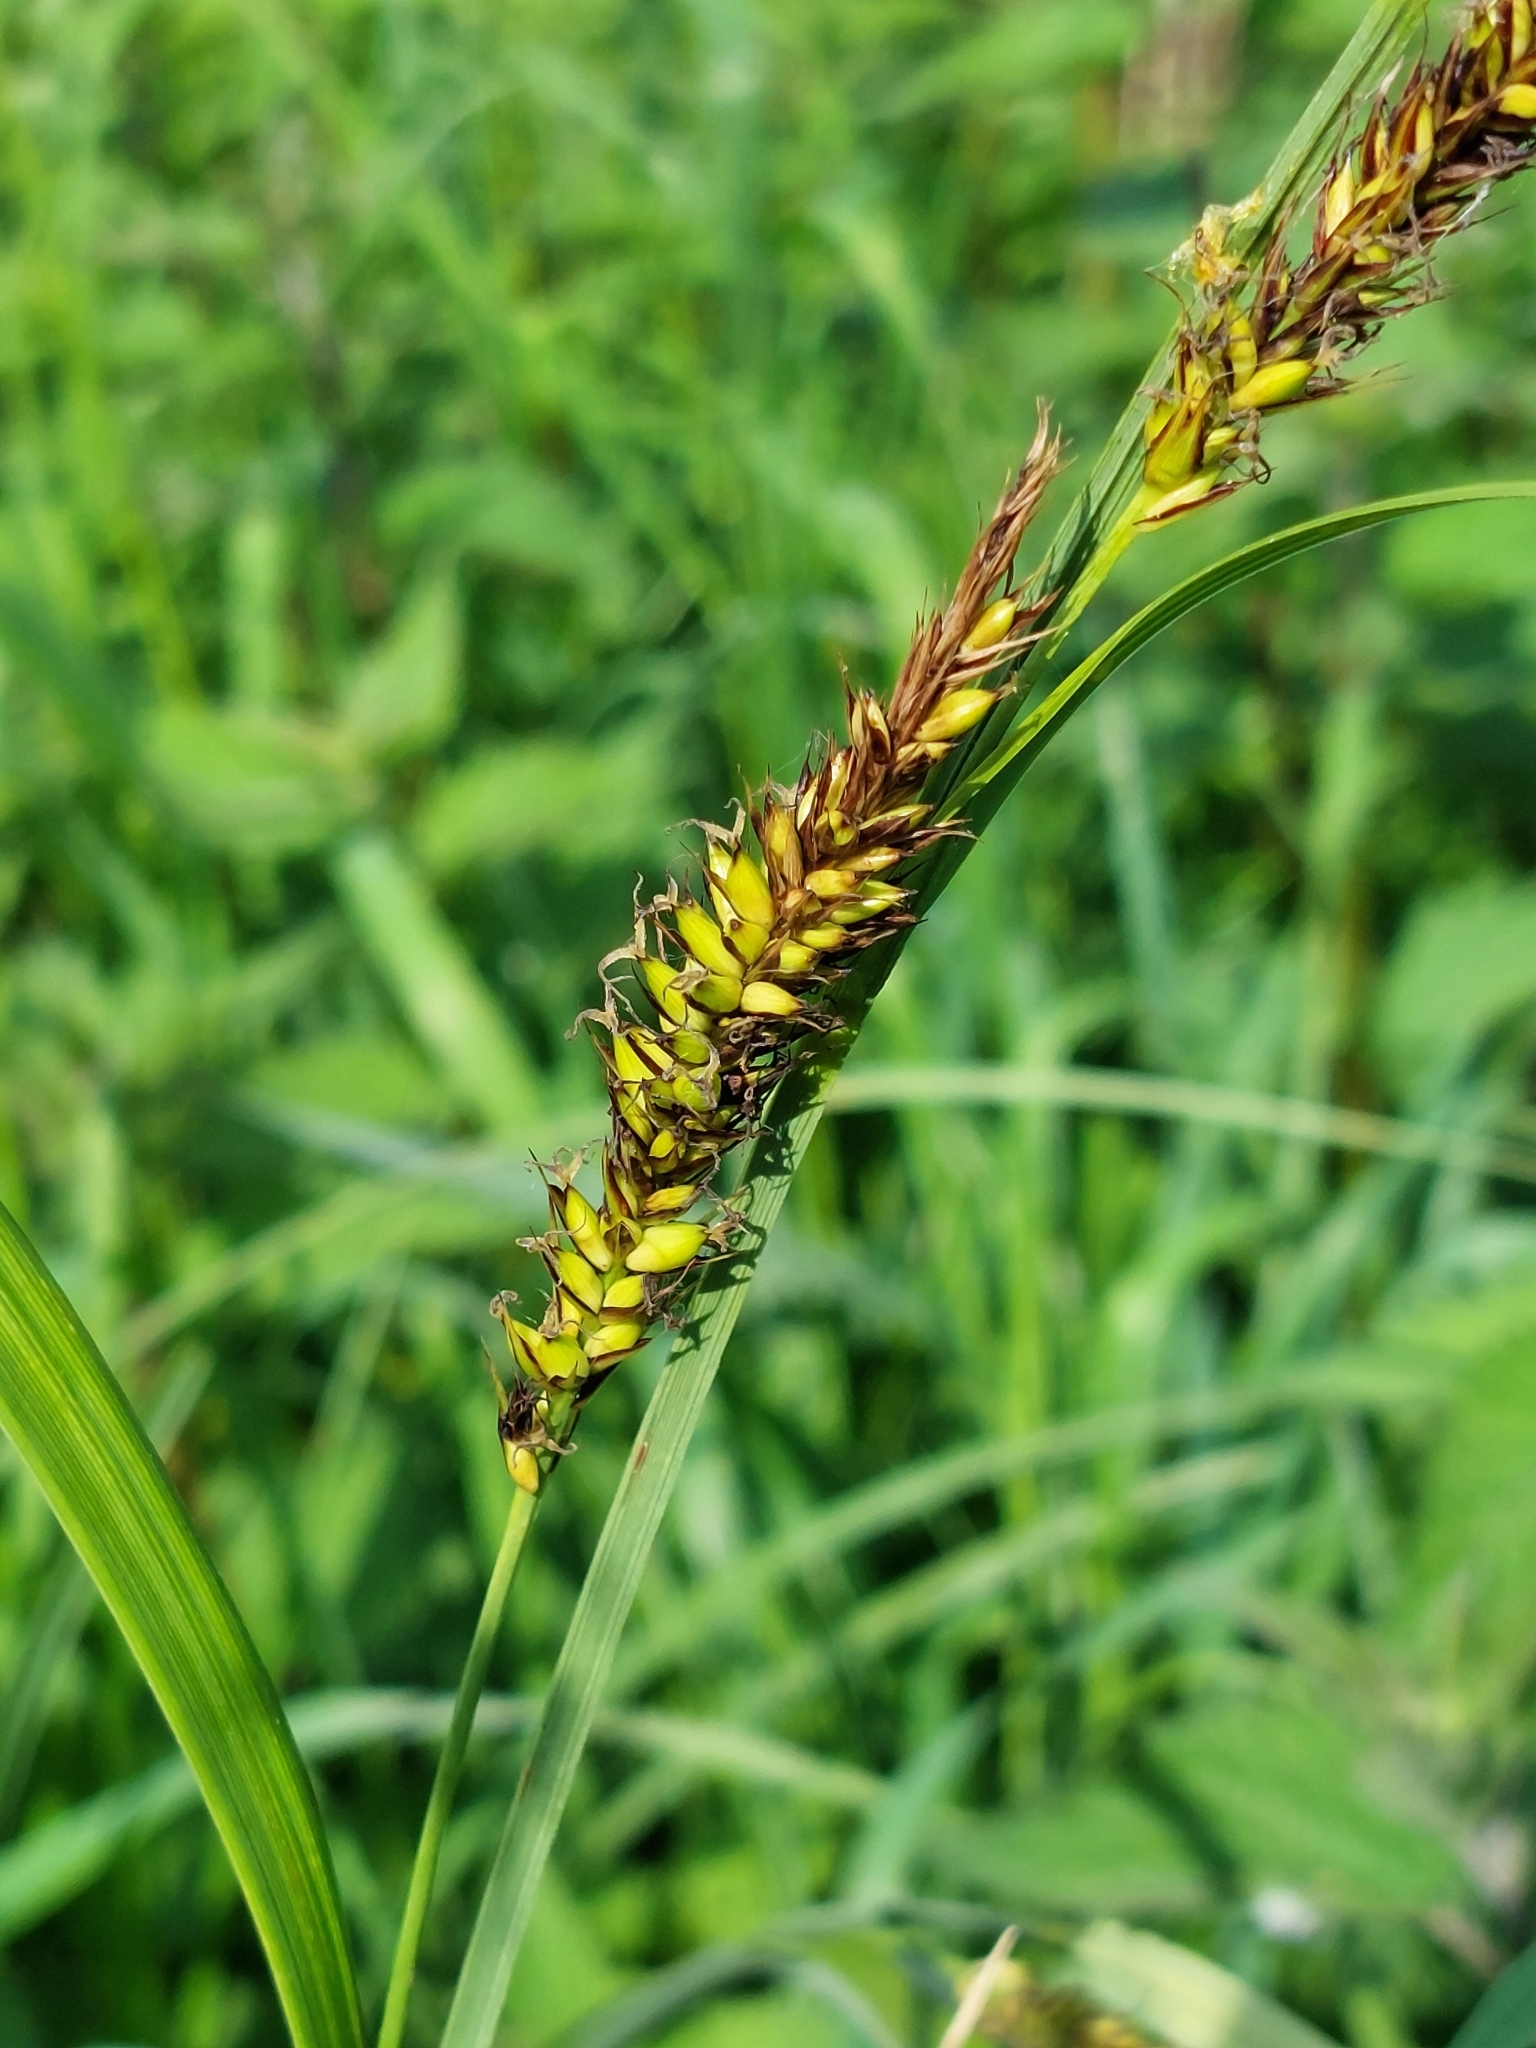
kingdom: Plantae
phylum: Tracheophyta
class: Liliopsida
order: Poales
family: Cyperaceae
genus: Carex
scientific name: Carex riparia
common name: Greater pond-sedge
